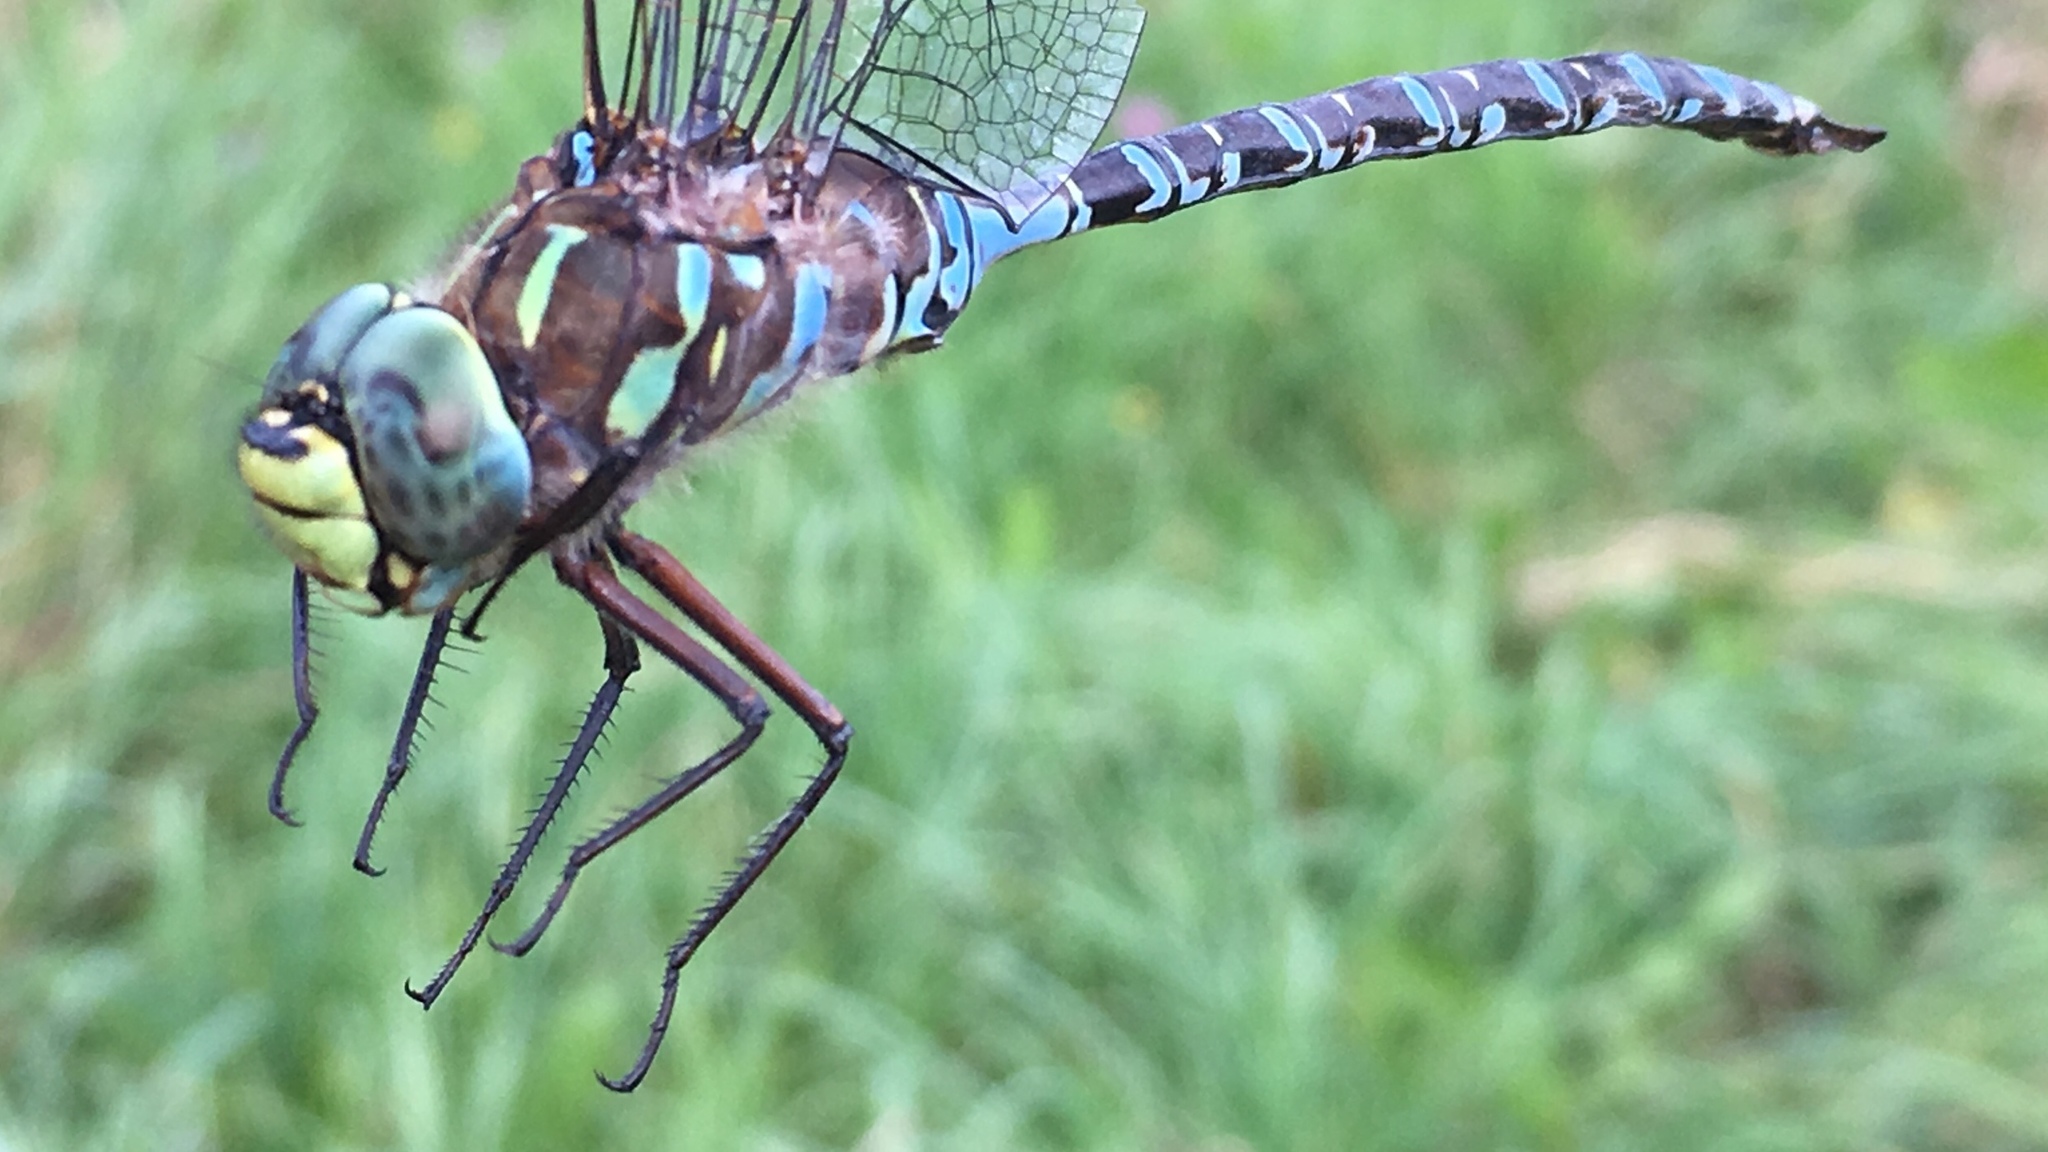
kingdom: Animalia
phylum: Arthropoda
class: Insecta
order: Odonata
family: Aeshnidae
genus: Aeshna
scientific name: Aeshna eremita
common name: Lake darner
